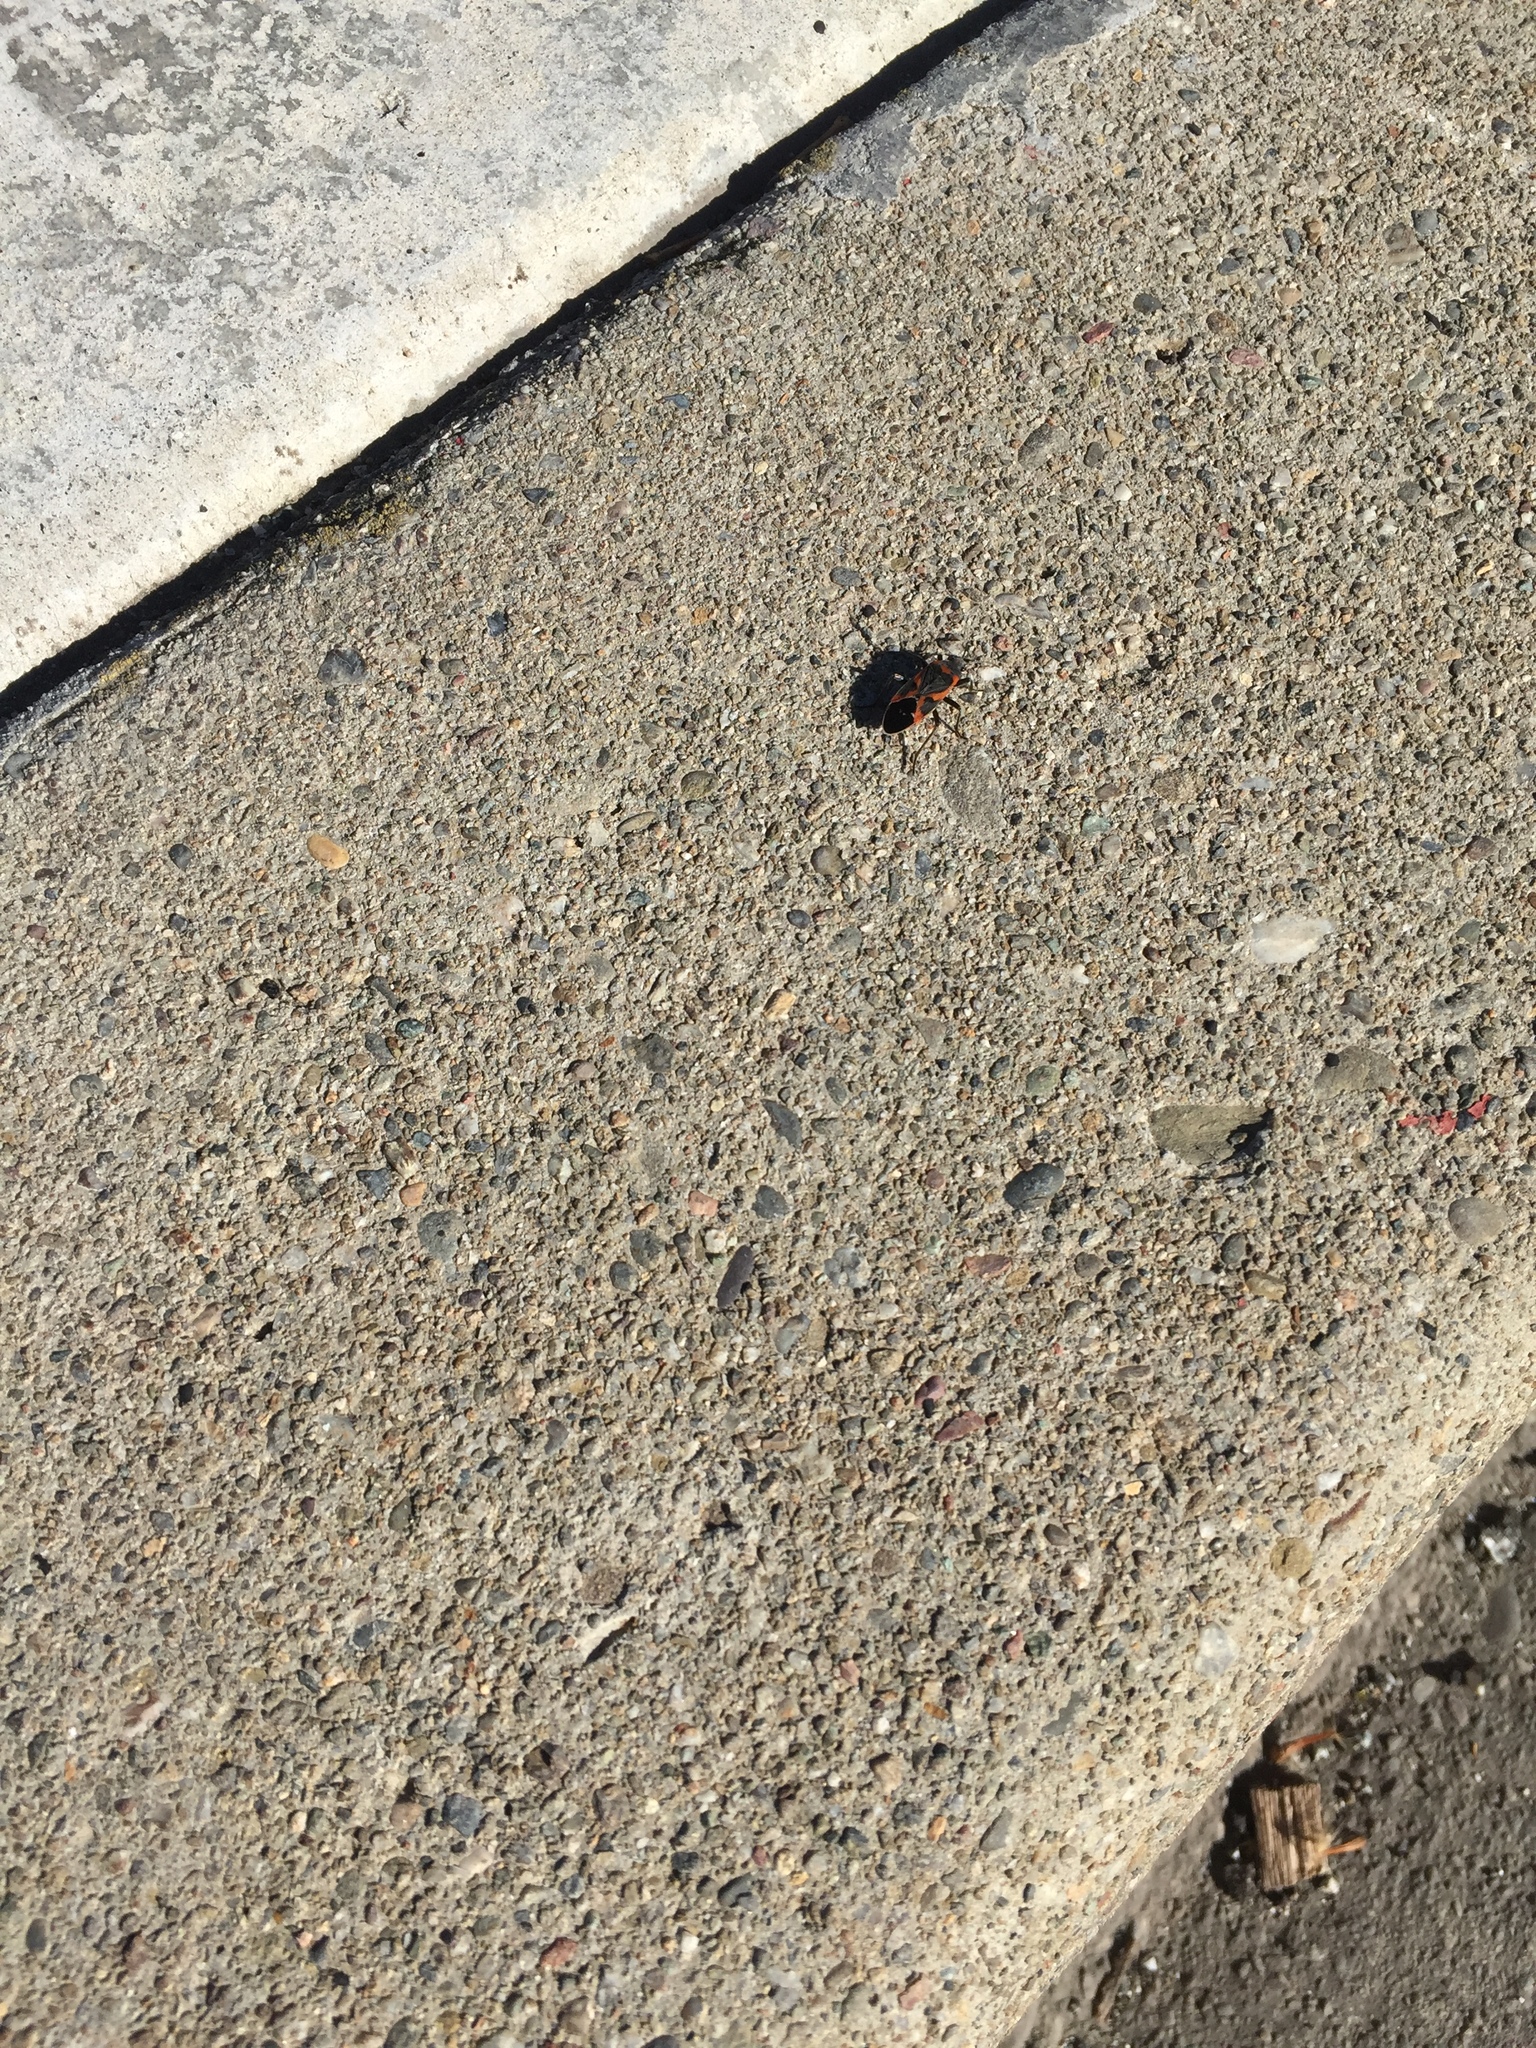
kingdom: Animalia
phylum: Arthropoda
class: Insecta
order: Hemiptera
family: Lygaeidae
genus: Lygaeus
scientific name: Lygaeus kalmii
